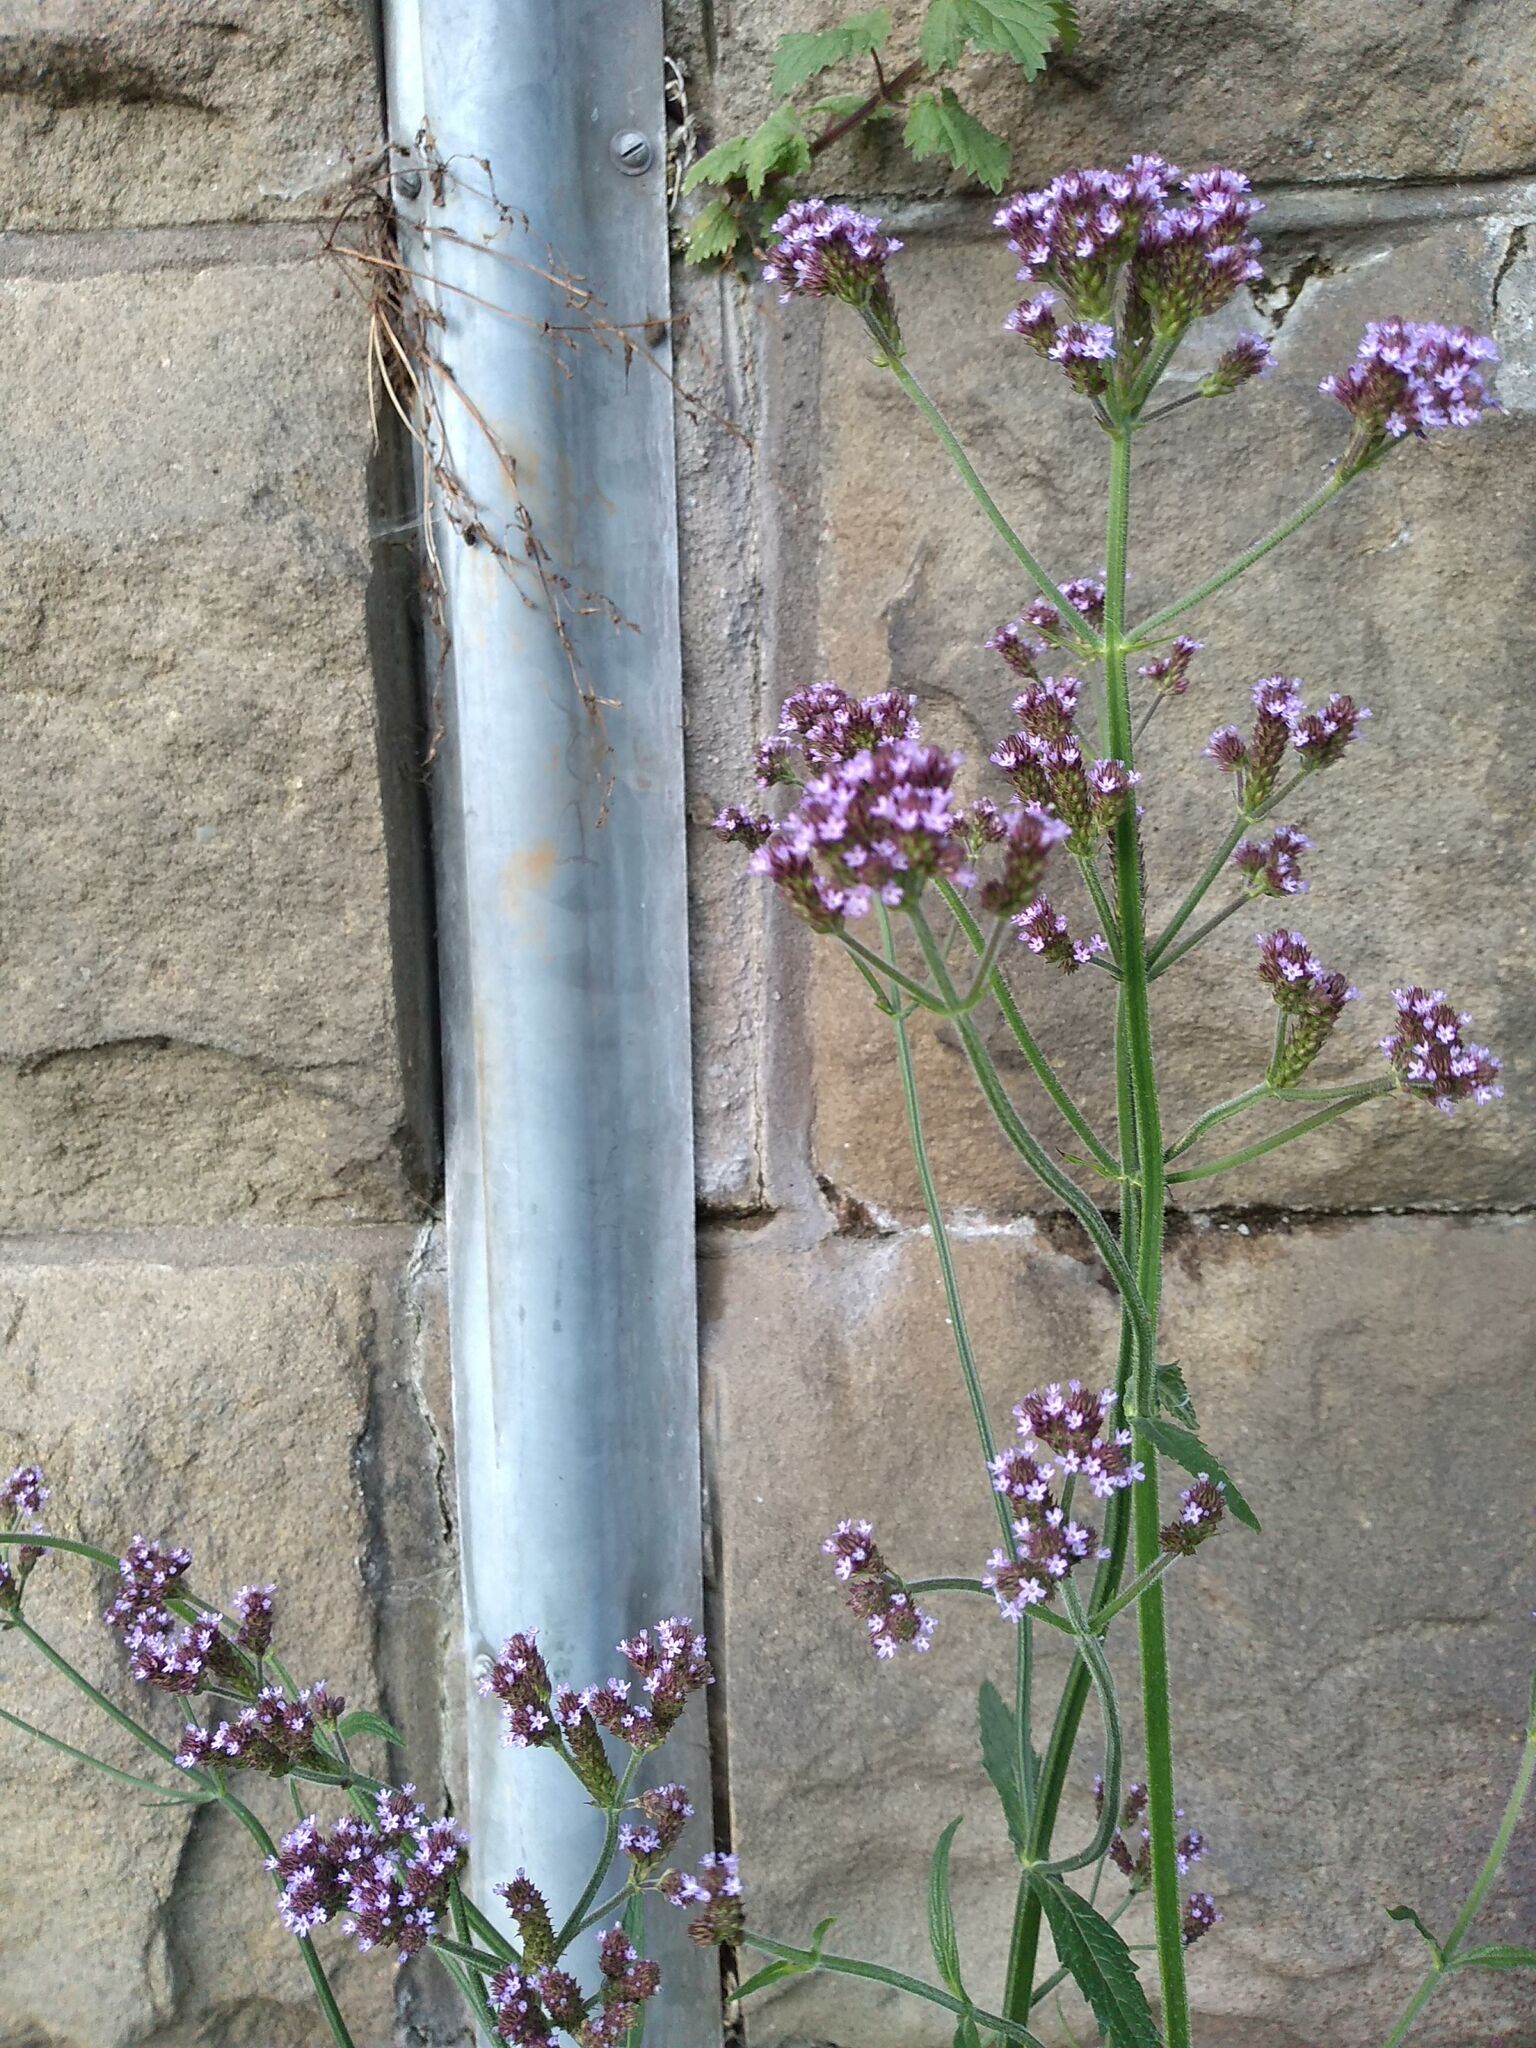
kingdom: Plantae
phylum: Tracheophyta
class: Magnoliopsida
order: Lamiales
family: Verbenaceae
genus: Verbena
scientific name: Verbena bonariensis
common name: Purpletop vervain
